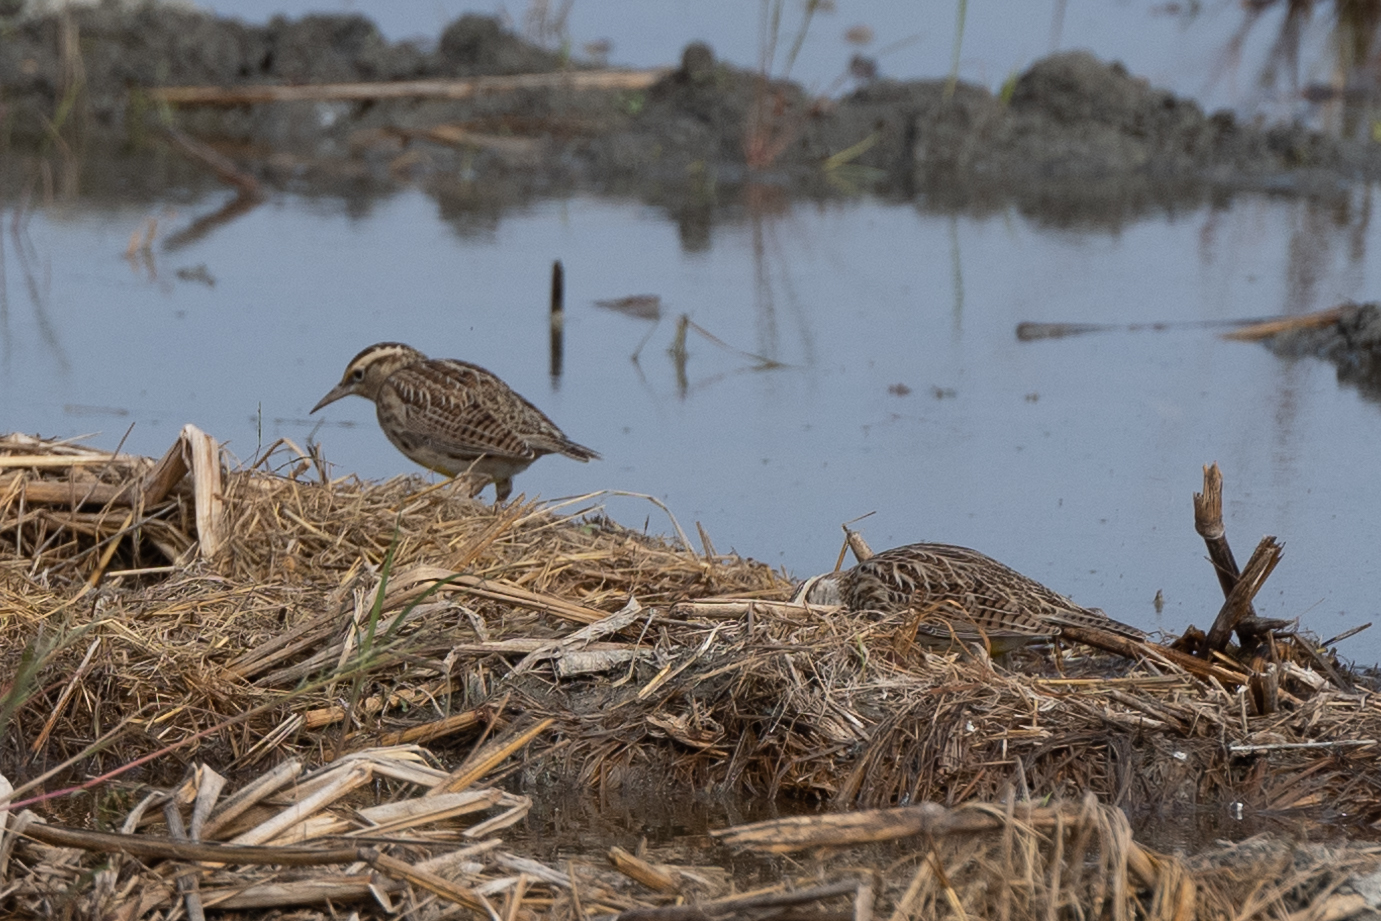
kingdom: Animalia
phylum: Chordata
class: Aves
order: Passeriformes
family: Icteridae
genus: Sturnella
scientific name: Sturnella neglecta
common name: Western meadowlark
